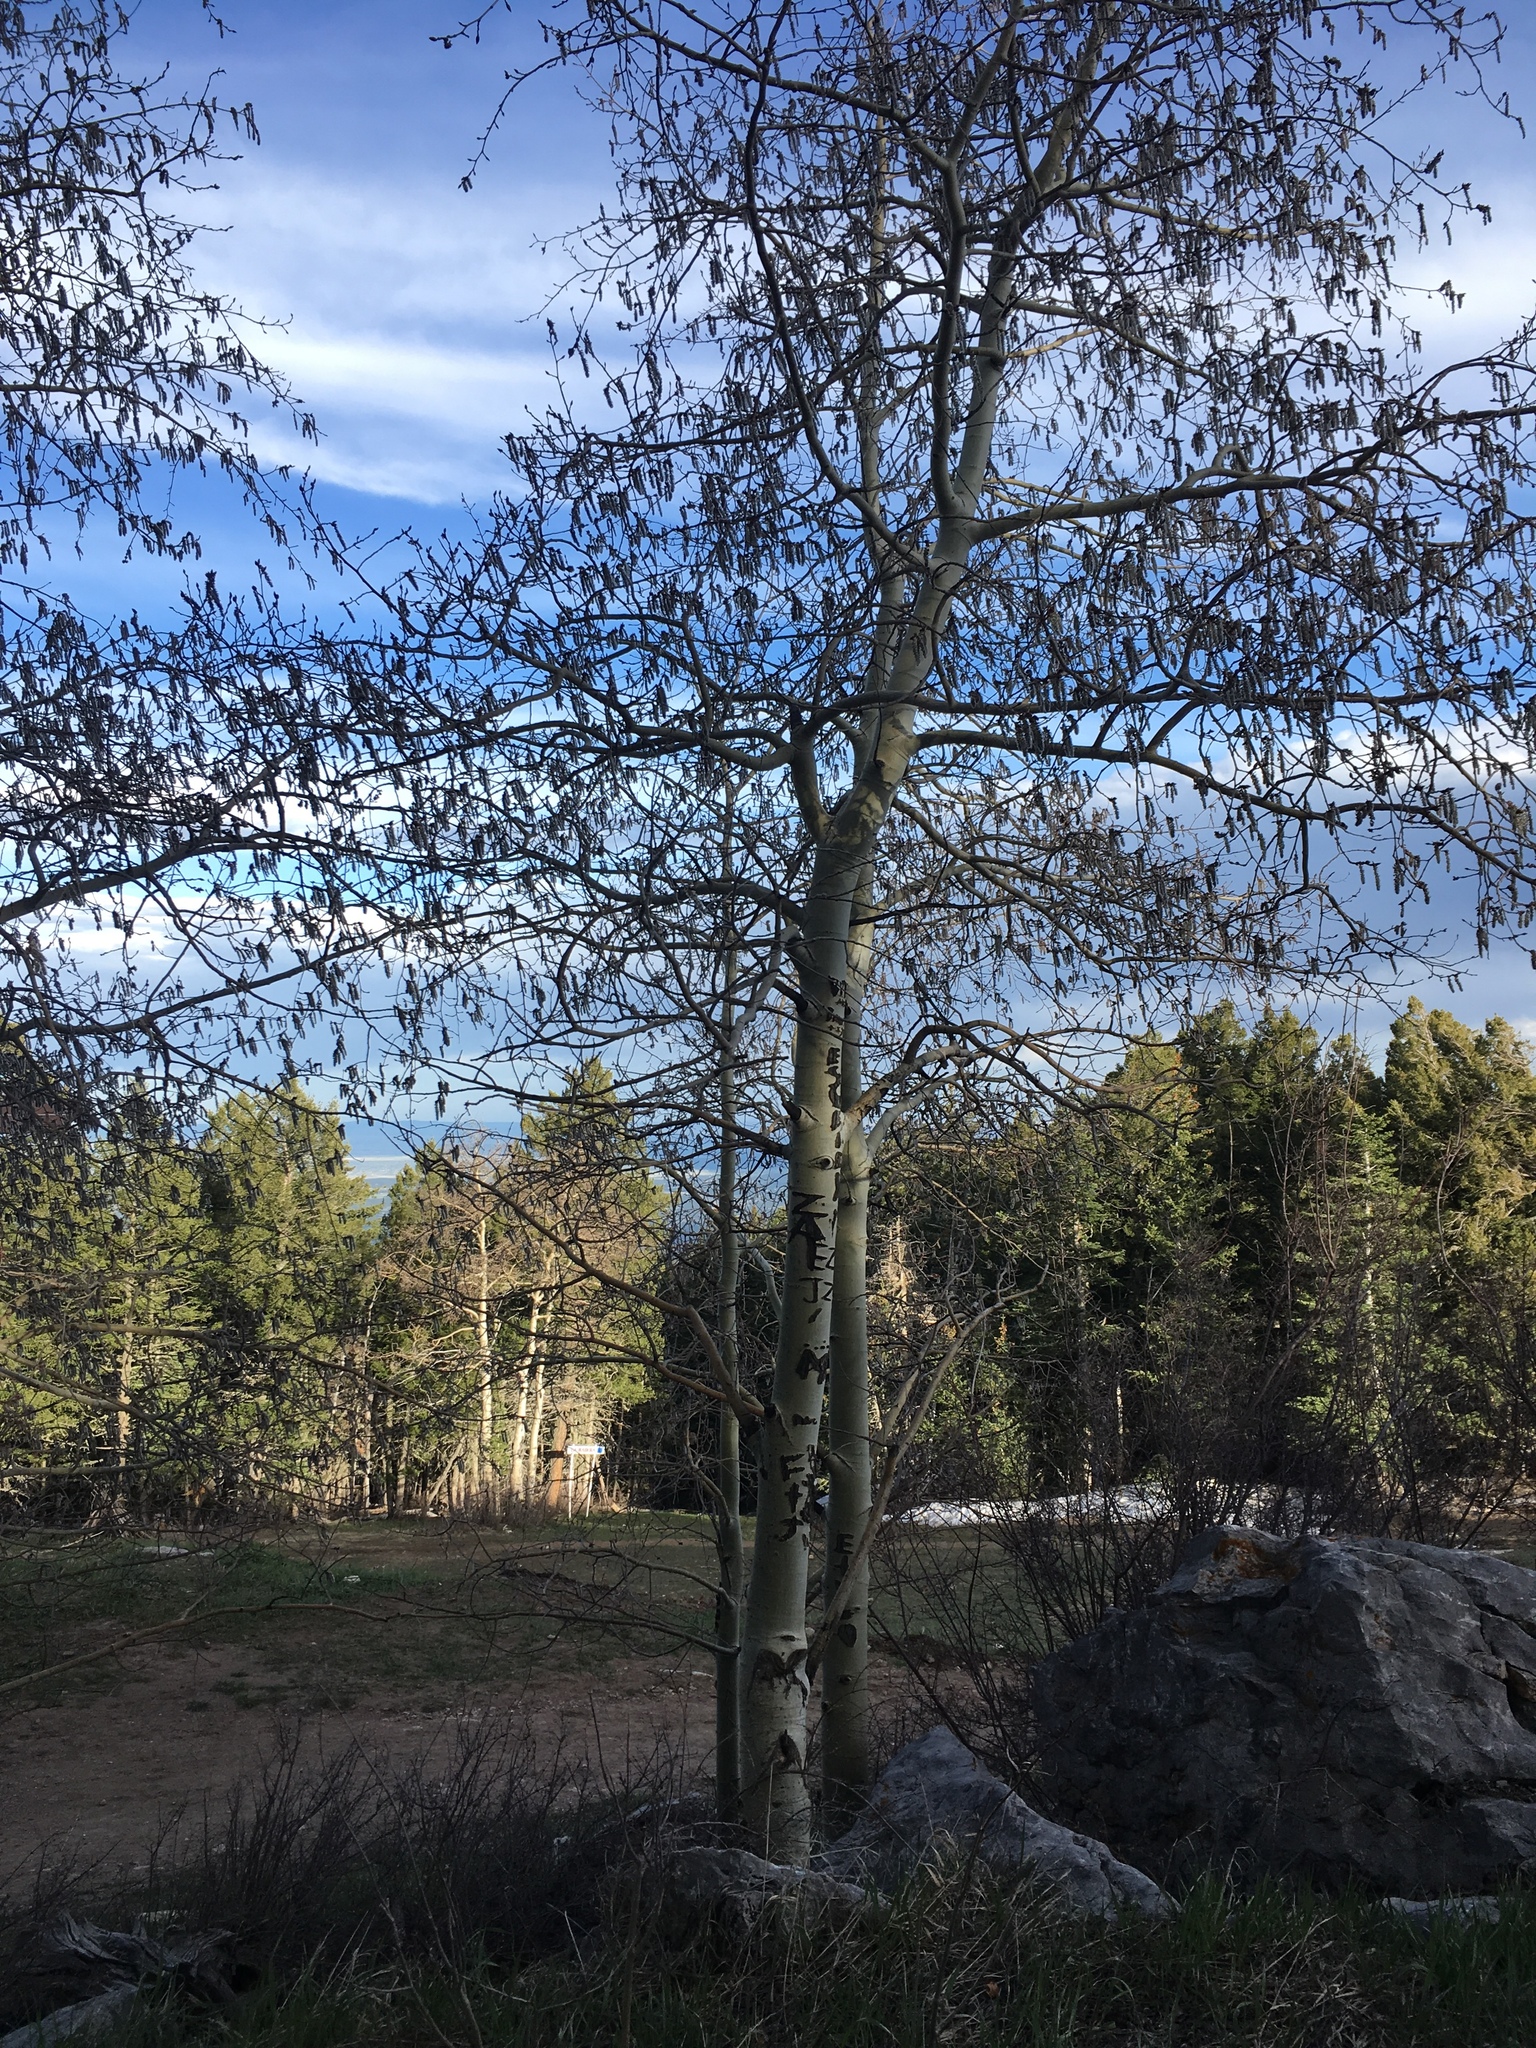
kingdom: Plantae
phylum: Tracheophyta
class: Magnoliopsida
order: Malpighiales
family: Salicaceae
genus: Populus
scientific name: Populus tremuloides
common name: Quaking aspen
